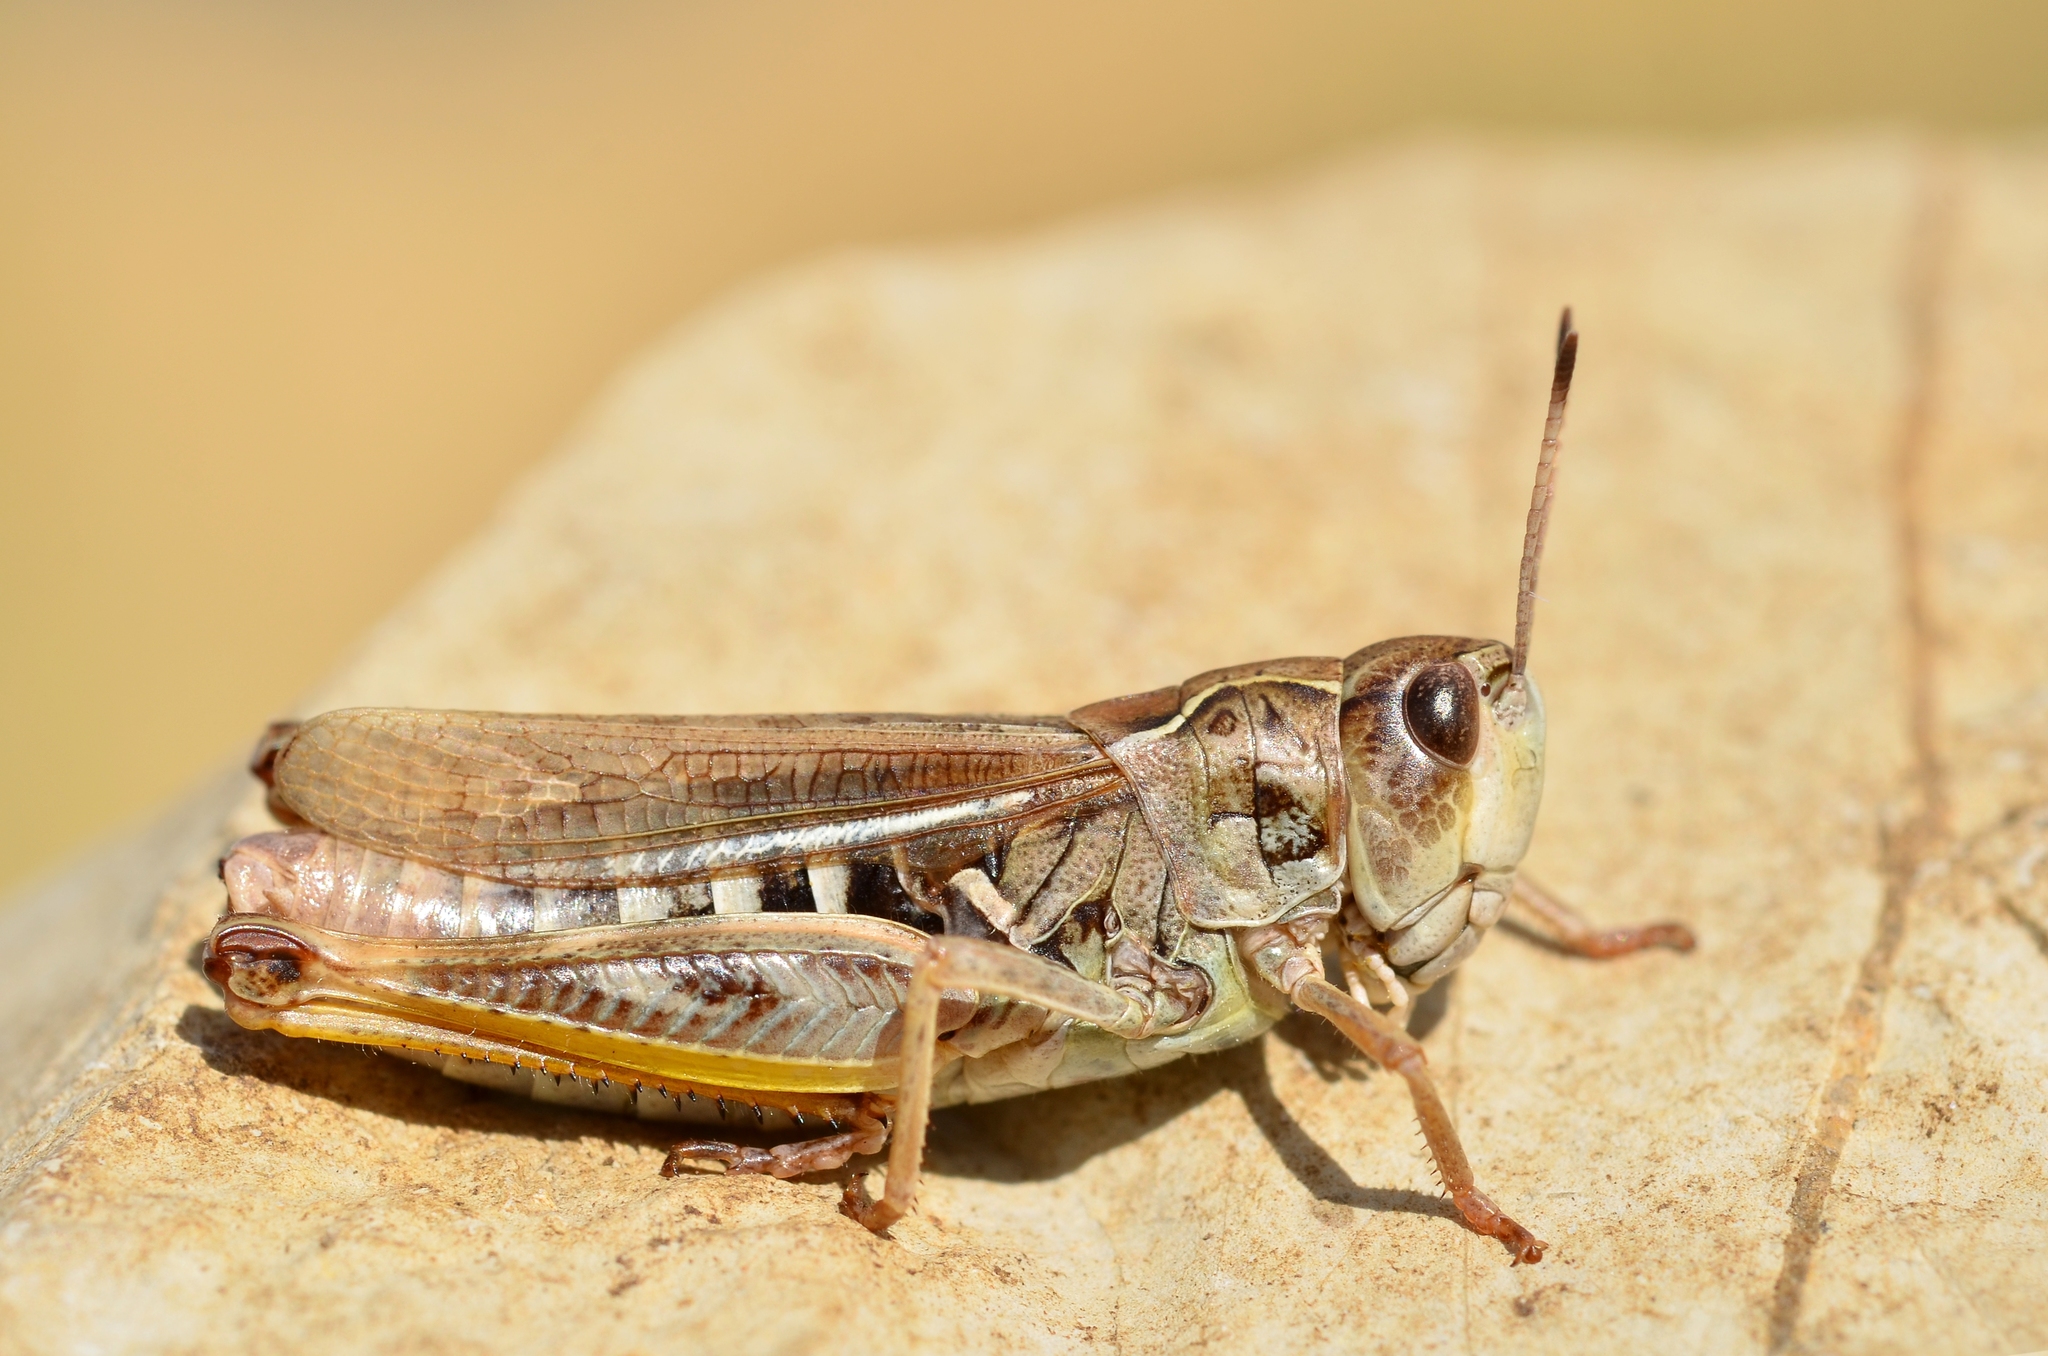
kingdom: Animalia
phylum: Arthropoda
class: Insecta
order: Orthoptera
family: Acrididae
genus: Gomphocerus
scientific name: Gomphocerus sibiricus
